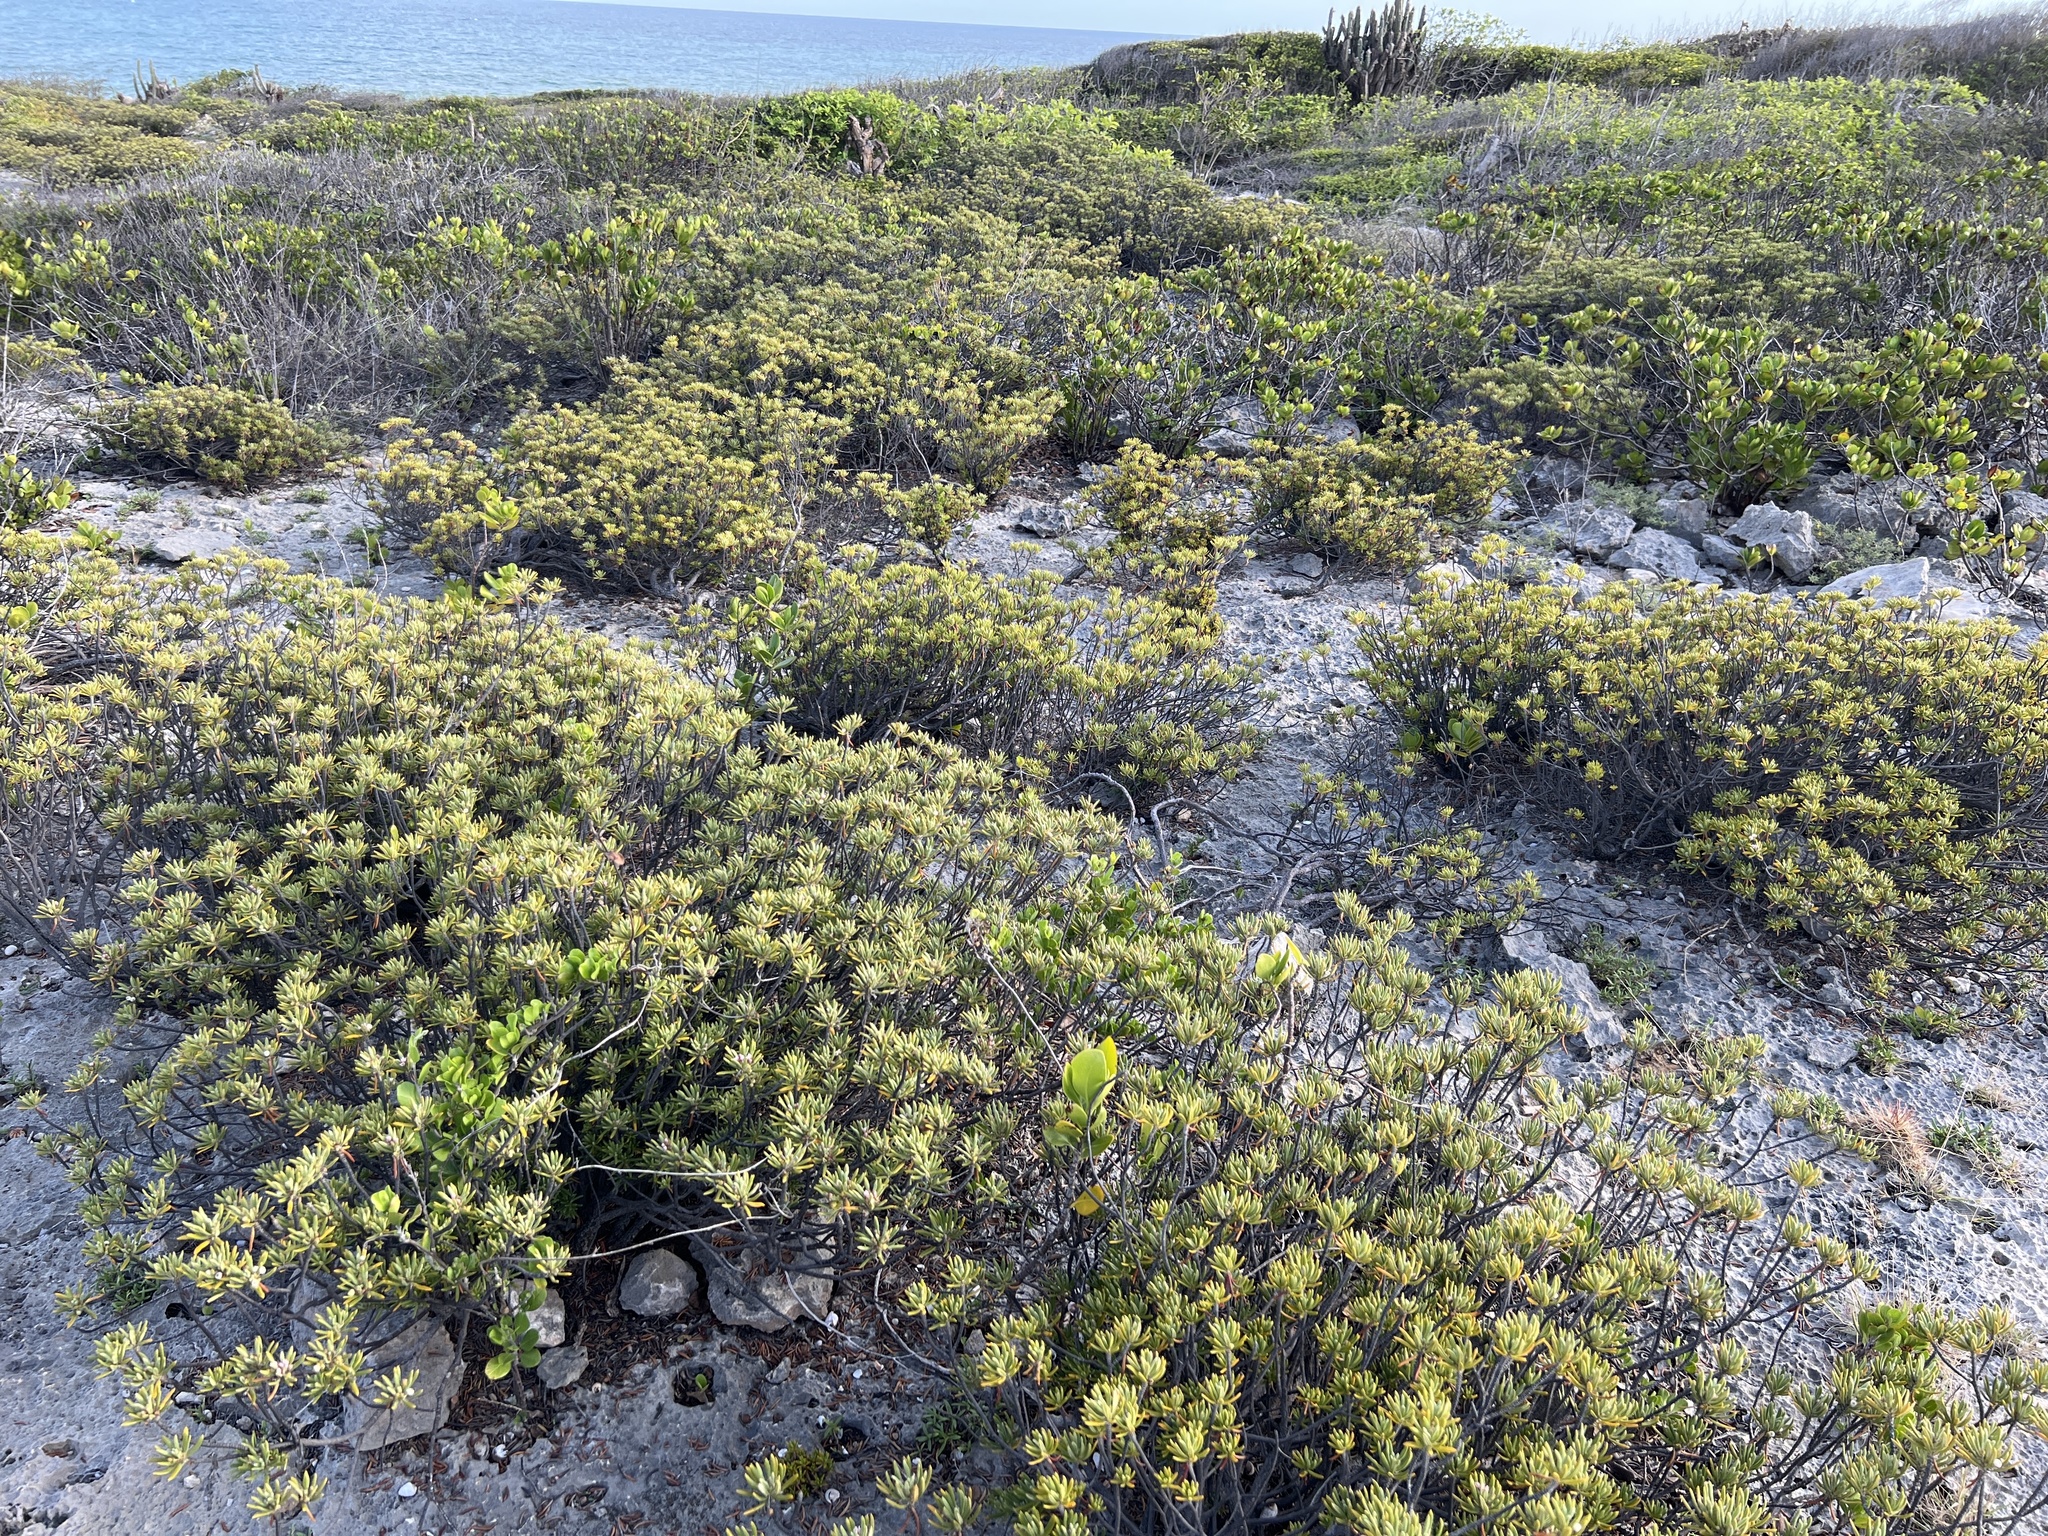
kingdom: Plantae
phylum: Tracheophyta
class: Magnoliopsida
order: Gentianales
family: Rubiaceae
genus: Strumpfia
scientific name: Strumpfia maritima
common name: Pride-of-big pine
